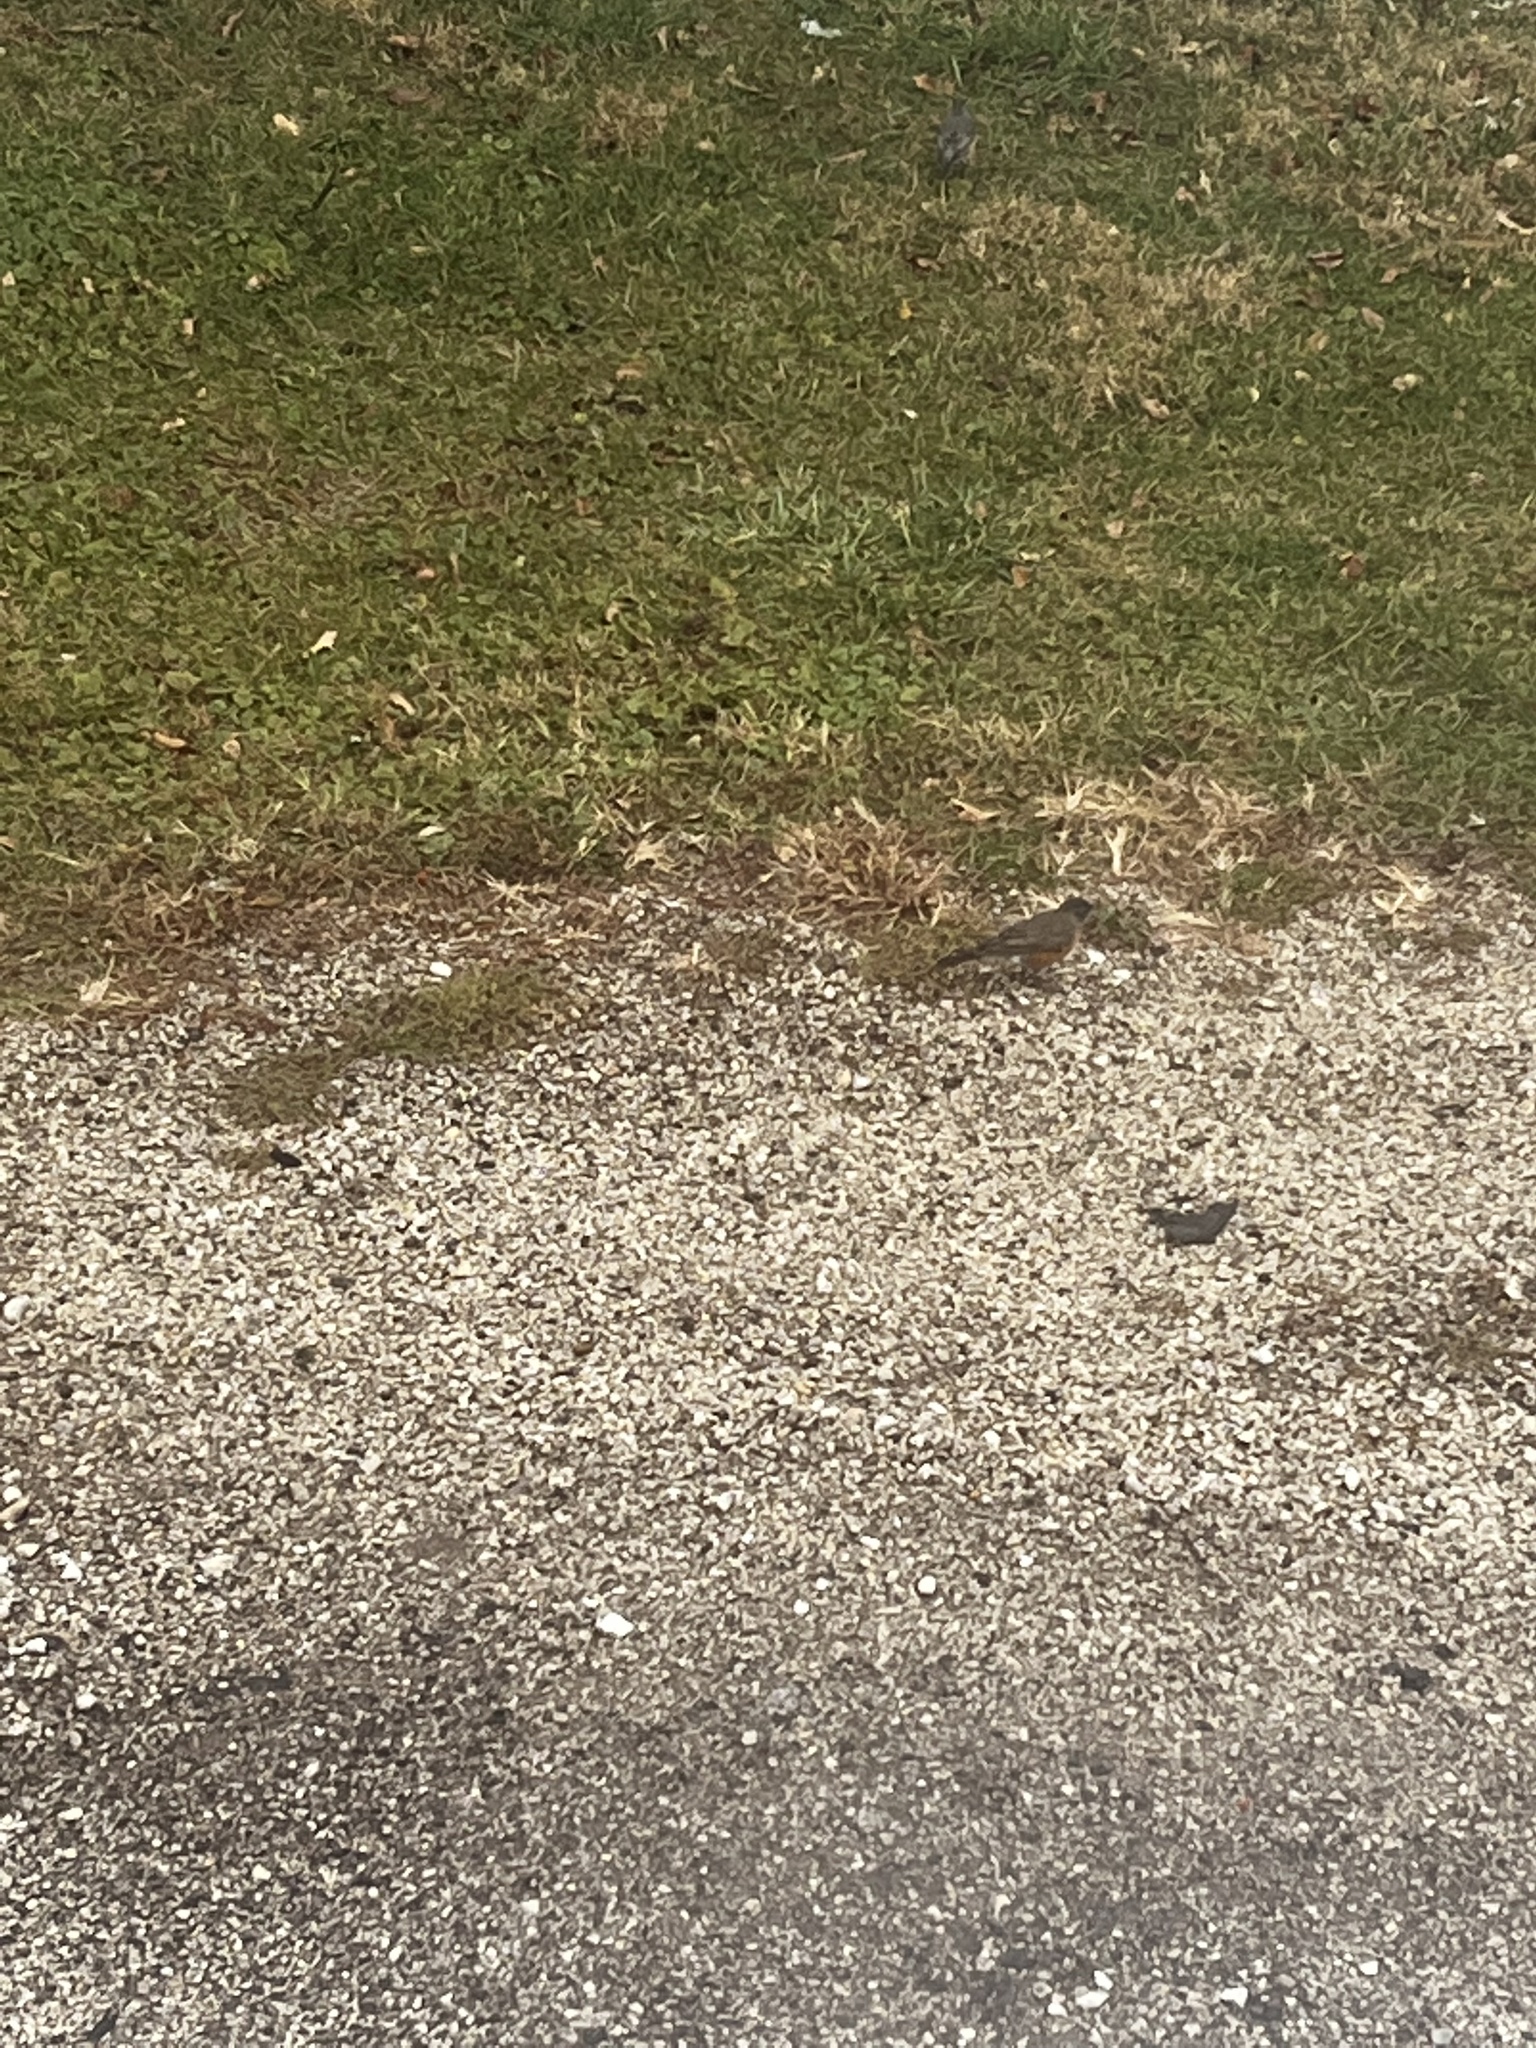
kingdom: Animalia
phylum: Chordata
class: Aves
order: Passeriformes
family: Turdidae
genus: Turdus
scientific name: Turdus migratorius
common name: American robin
